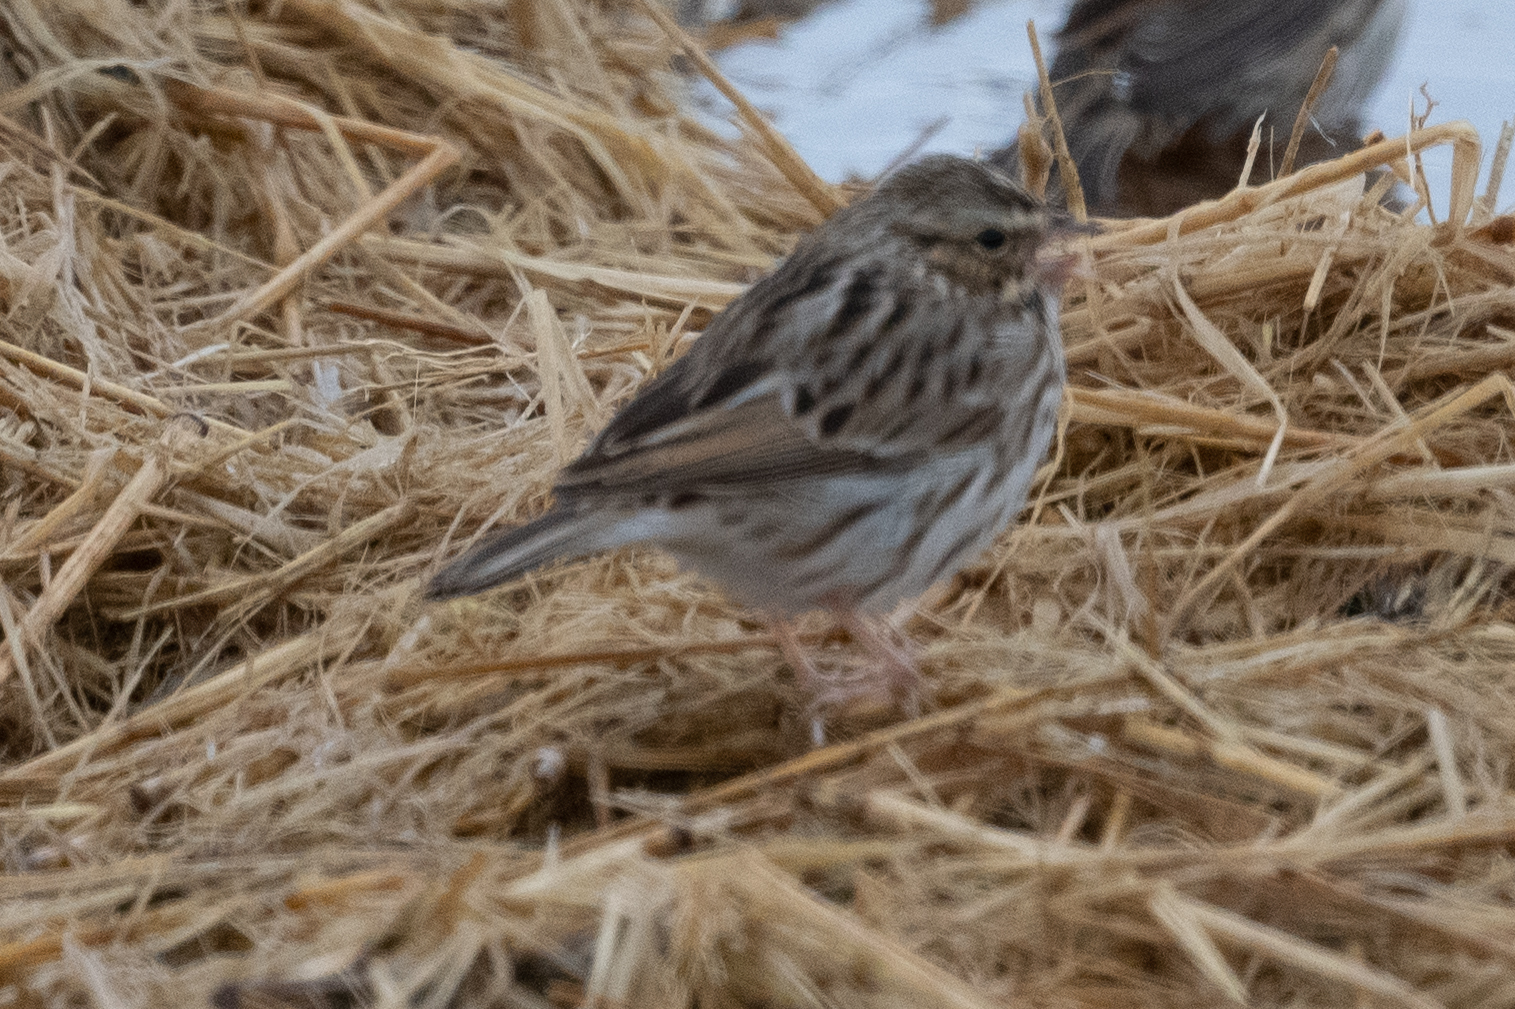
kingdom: Animalia
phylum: Chordata
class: Aves
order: Passeriformes
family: Passerellidae
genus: Passerculus
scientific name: Passerculus sandwichensis
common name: Savannah sparrow
